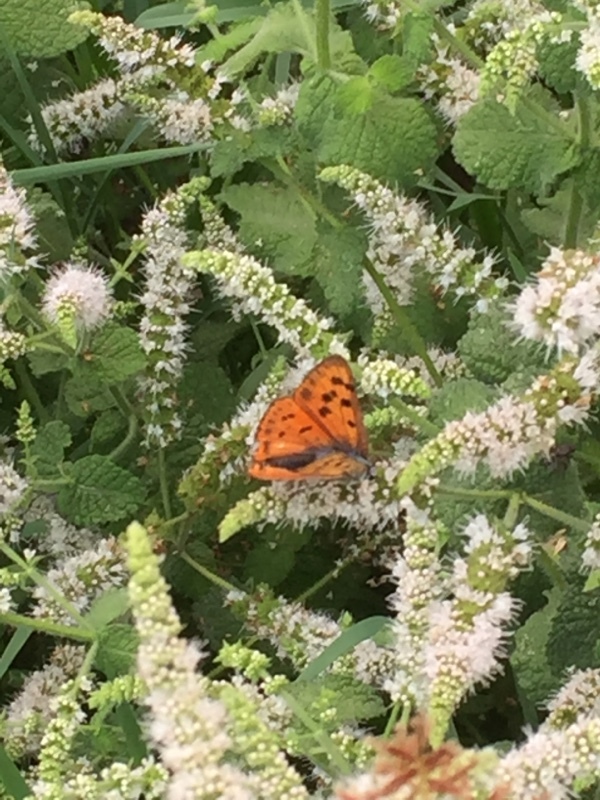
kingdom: Animalia
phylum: Arthropoda
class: Insecta
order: Lepidoptera
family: Lycaenidae
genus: Lycaena
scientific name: Lycaena alciphron
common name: Purple-shot copper
